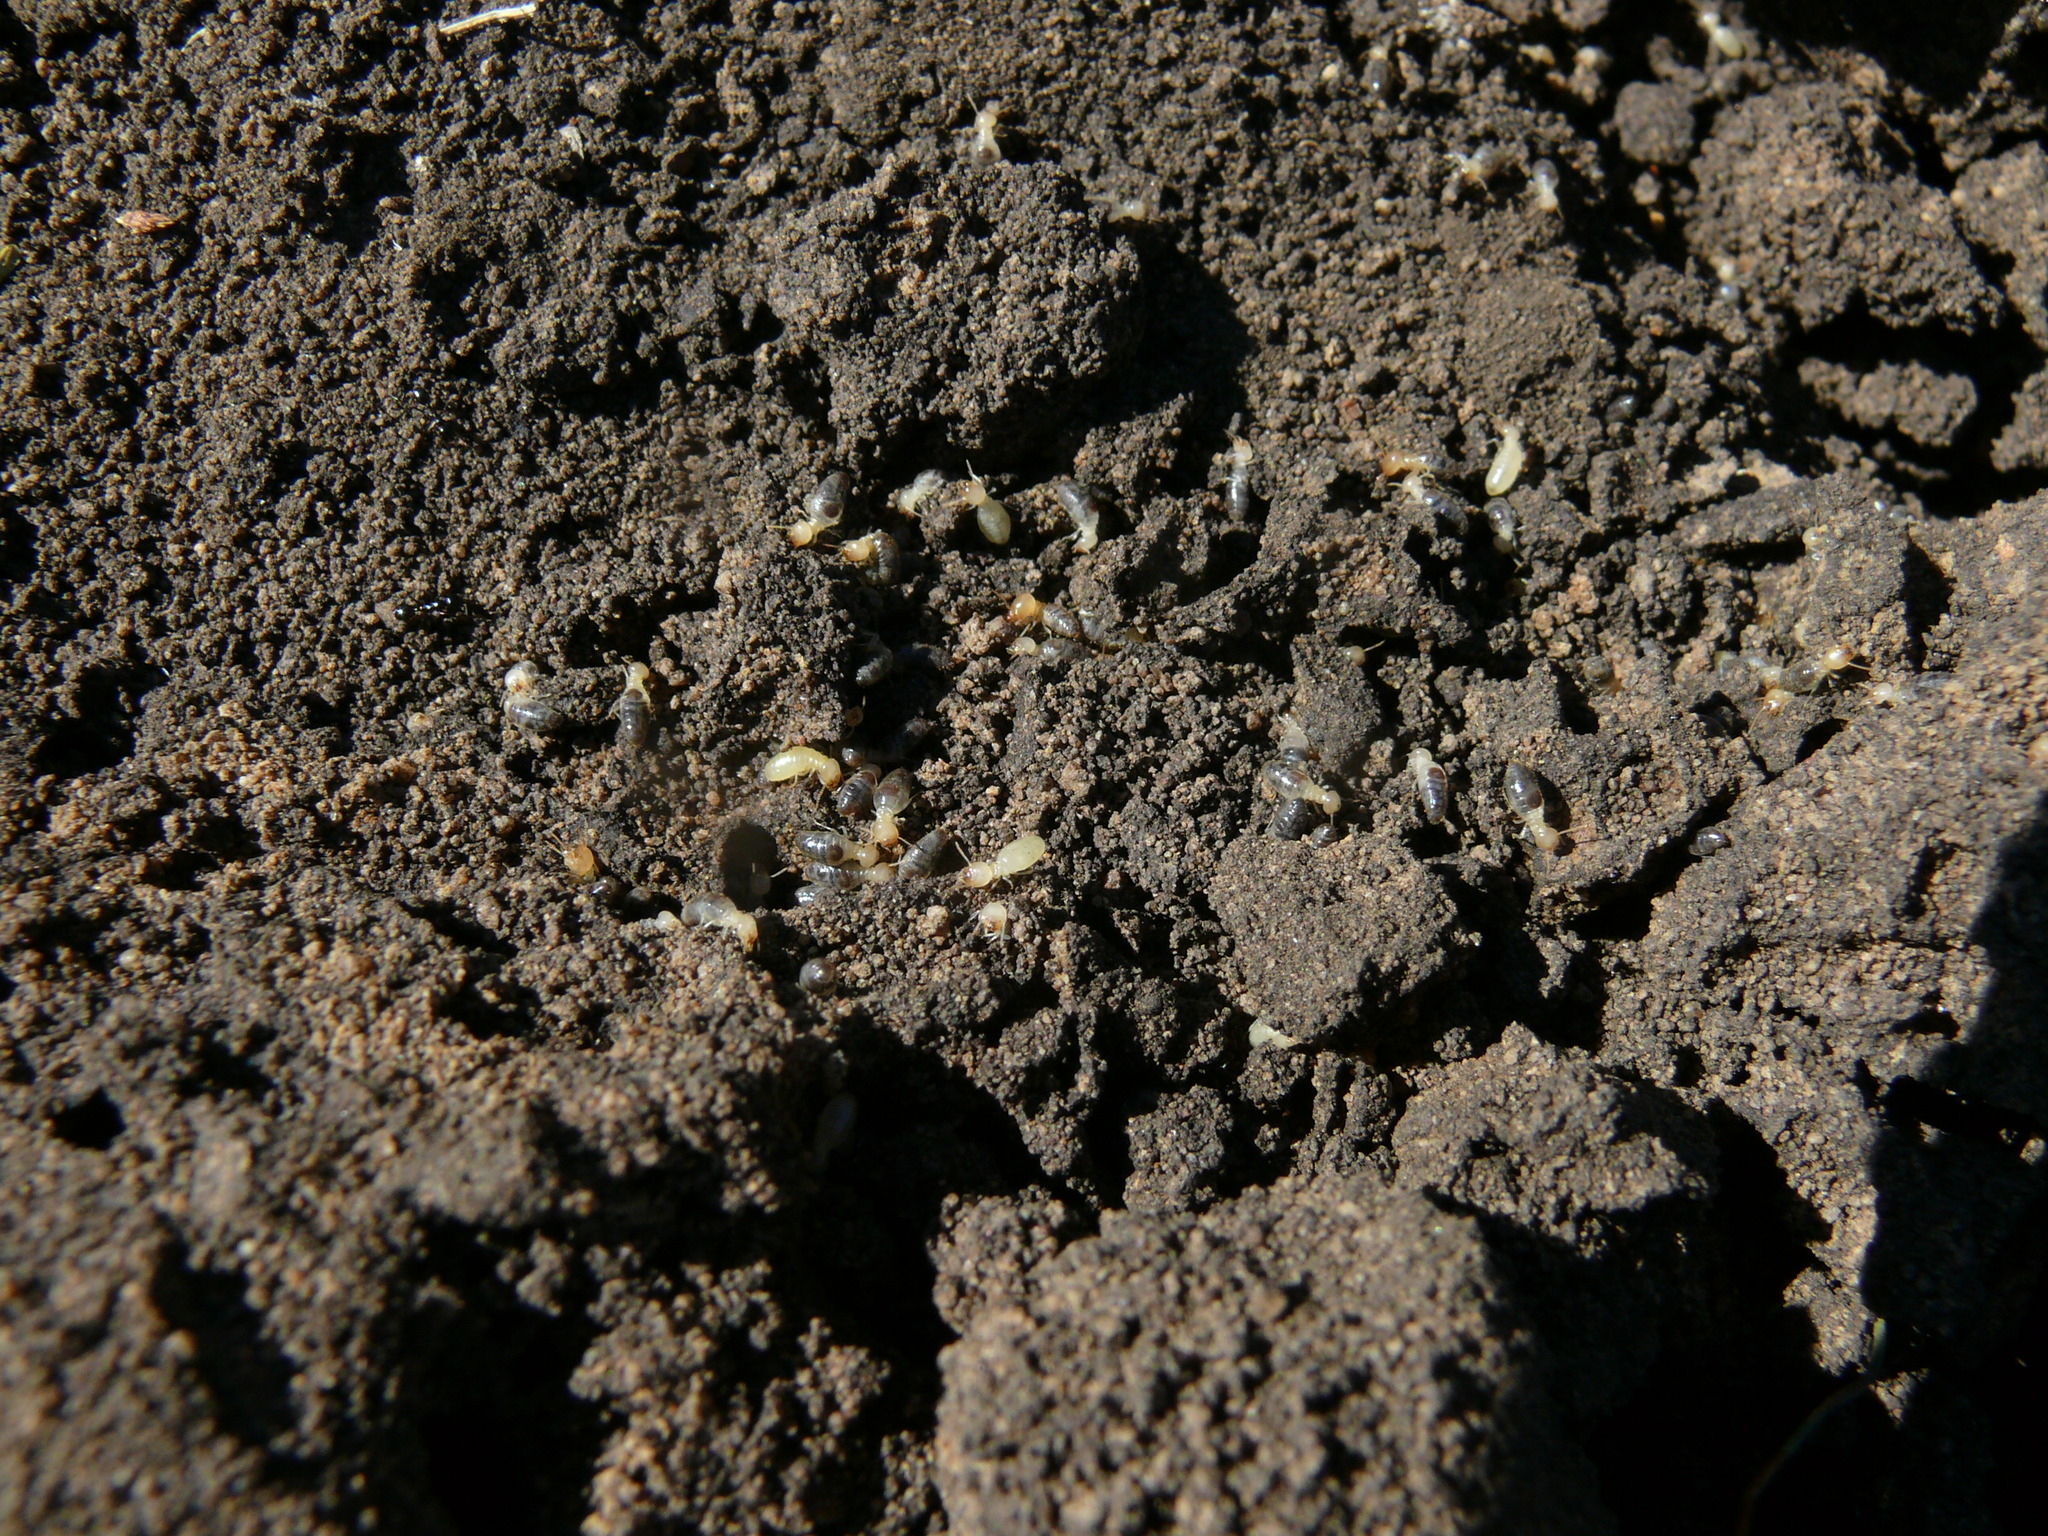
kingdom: Animalia
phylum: Arthropoda
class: Insecta
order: Blattodea
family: Termitidae
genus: Amitermes
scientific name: Amitermes hastatus
